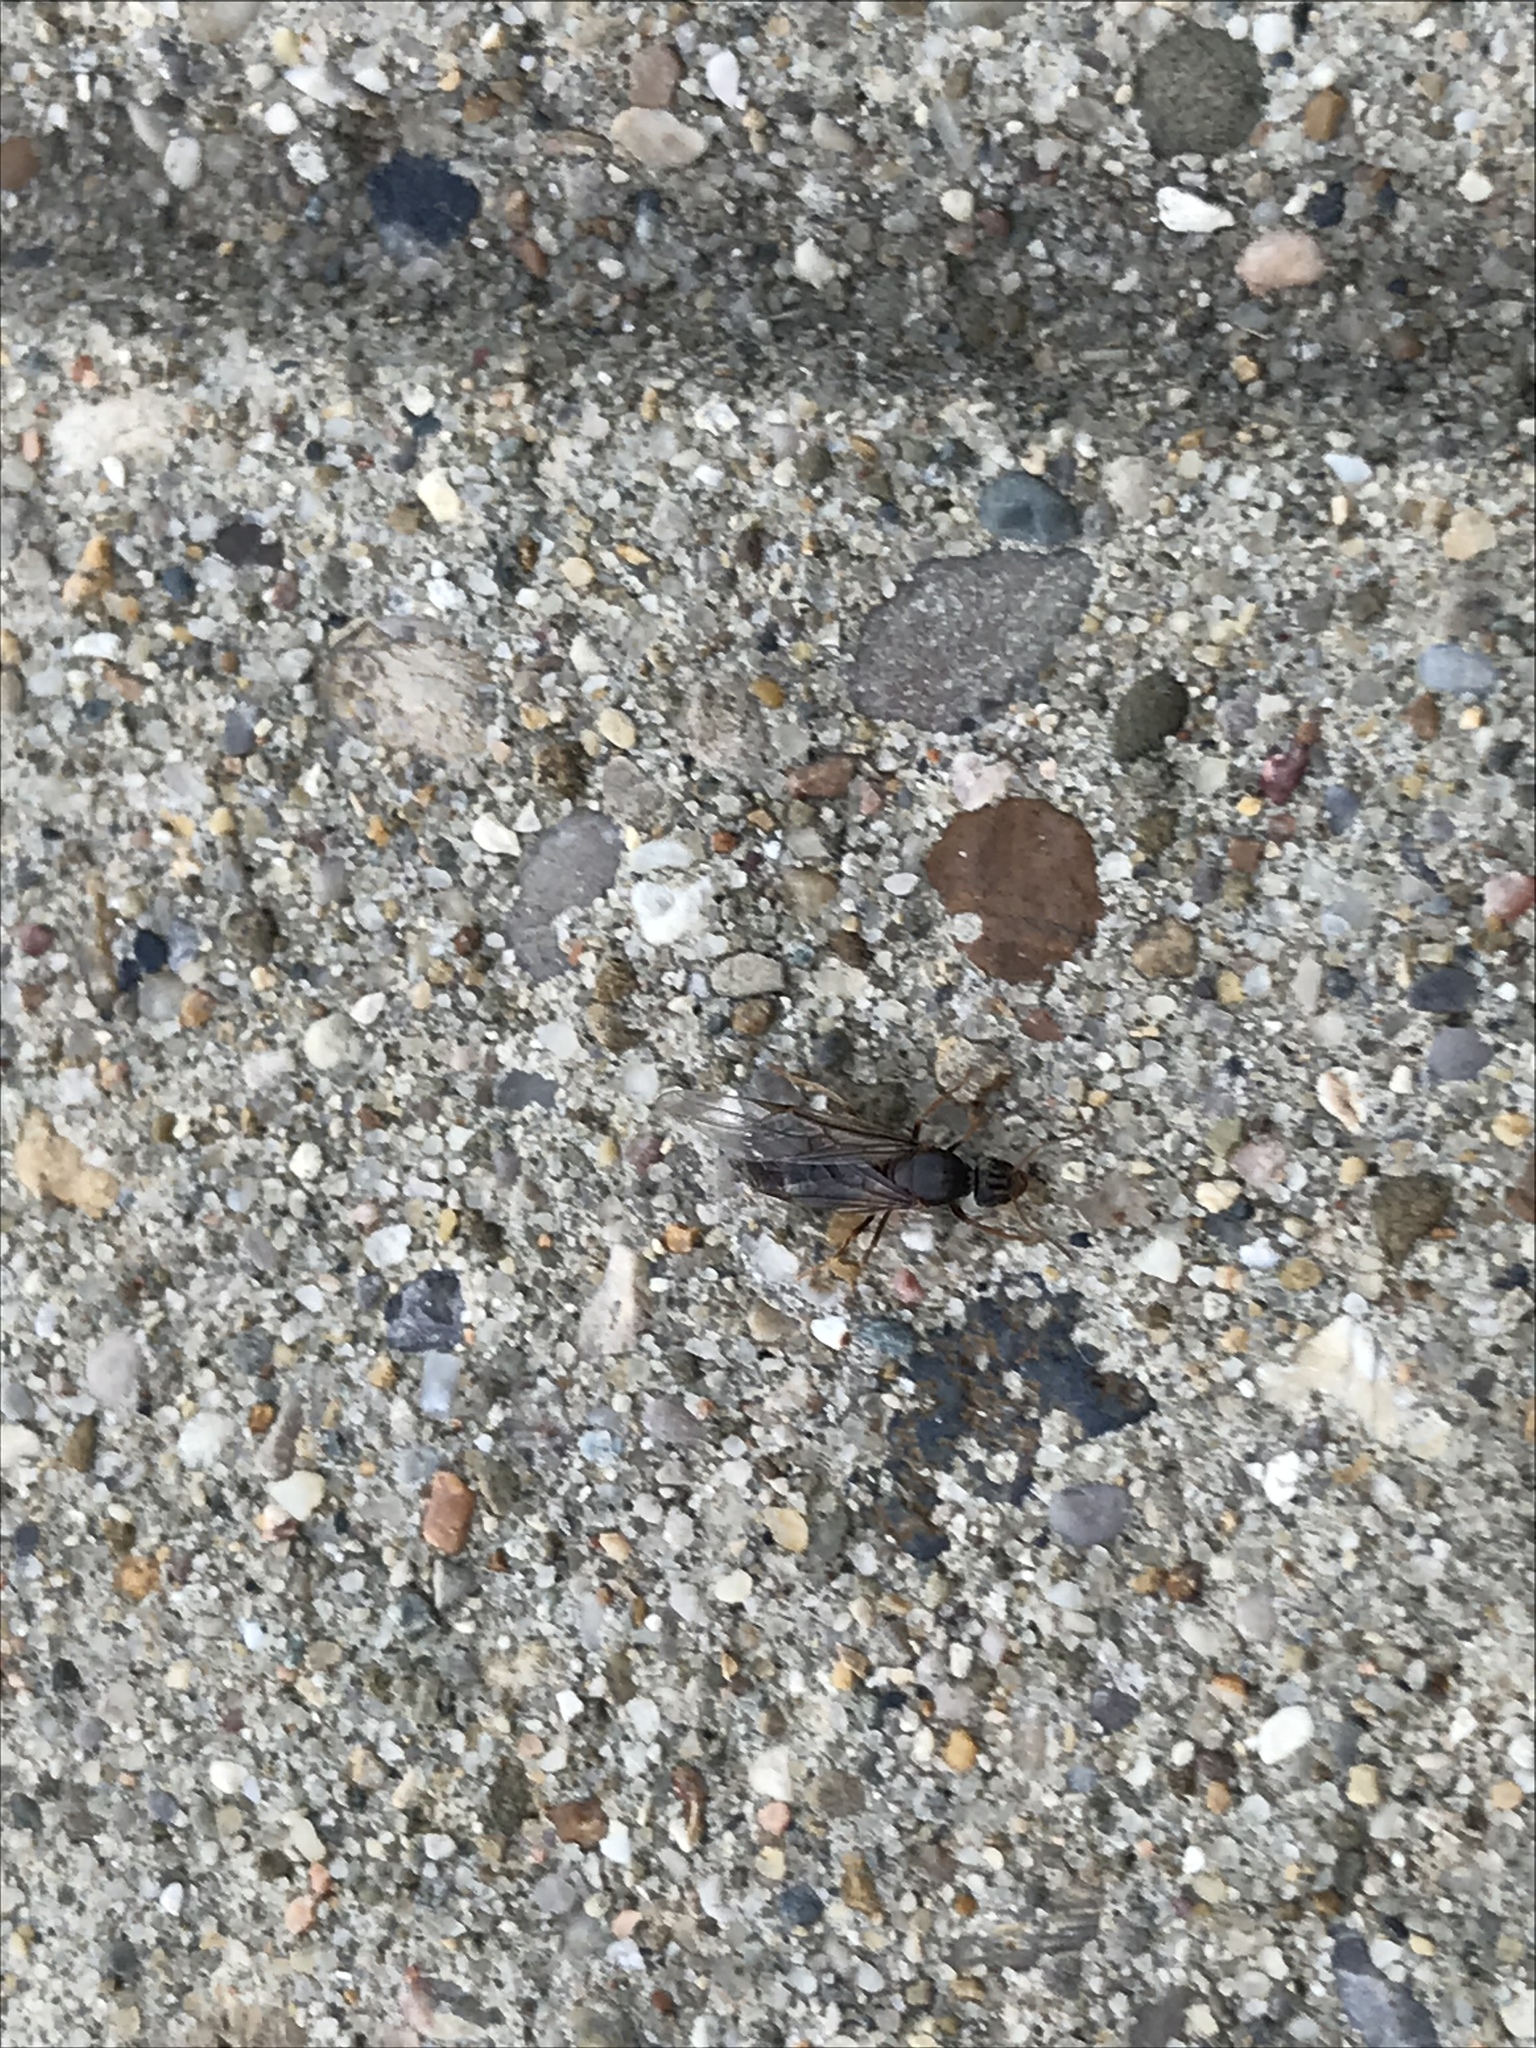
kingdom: Animalia
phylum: Arthropoda
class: Insecta
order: Hymenoptera
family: Formicidae
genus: Camponotus
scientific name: Camponotus pennsylvanicus
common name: Black carpenter ant
